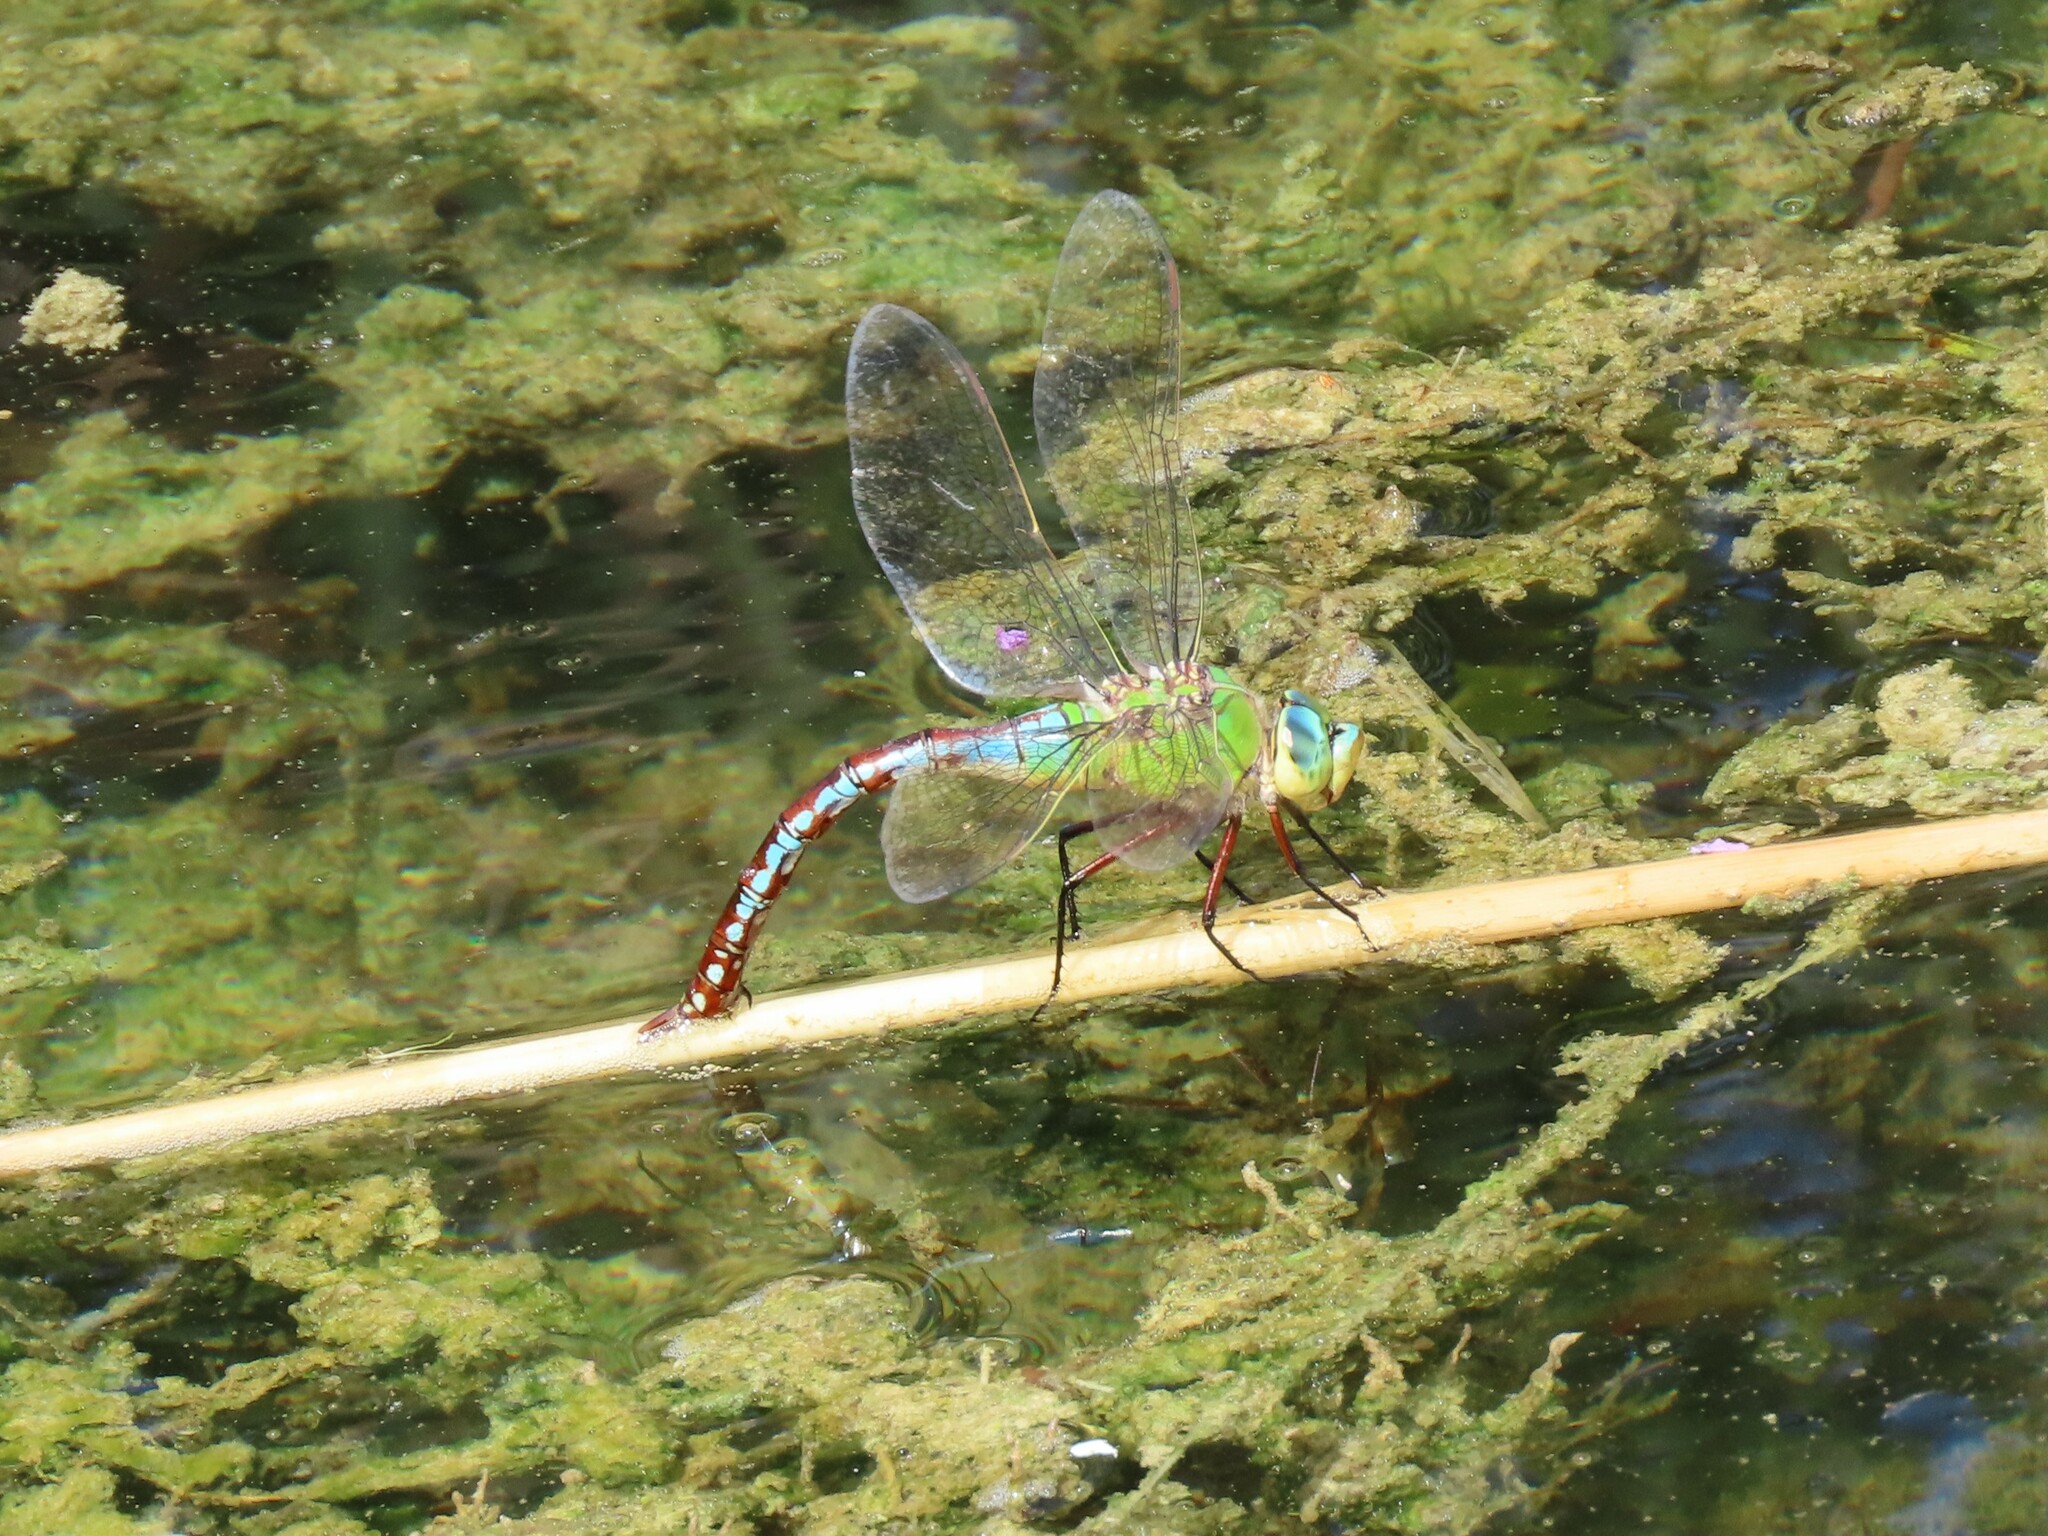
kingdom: Animalia
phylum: Arthropoda
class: Insecta
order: Odonata
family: Aeshnidae
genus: Anax
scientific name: Anax imperator
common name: Emperor dragonfly
